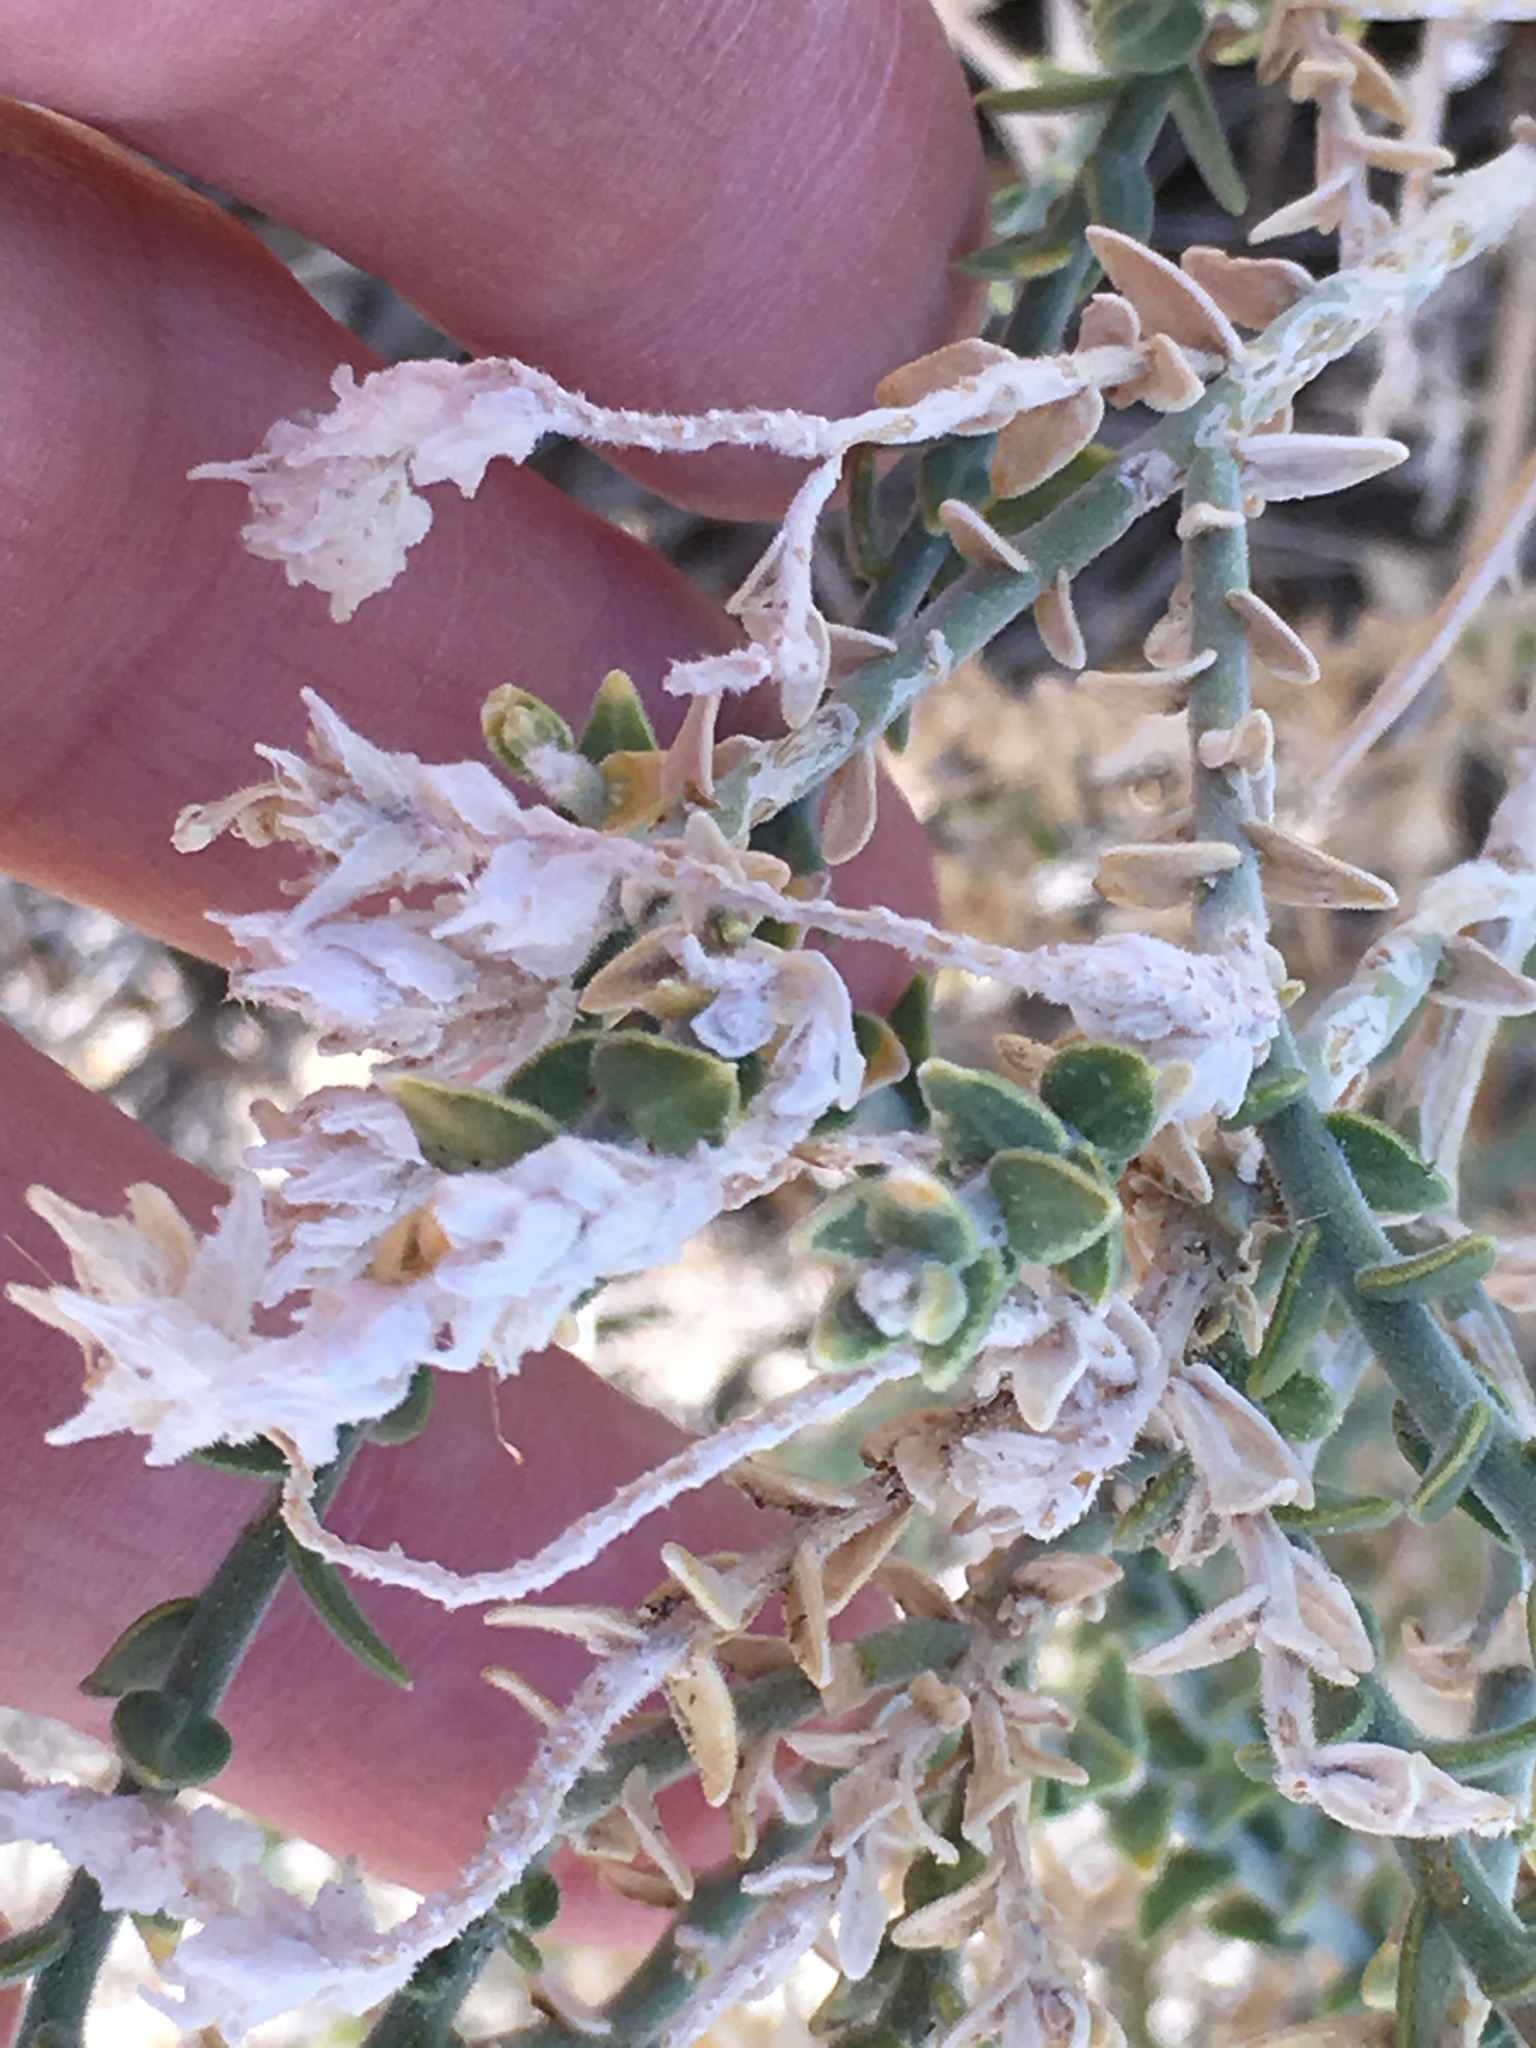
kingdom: Plantae
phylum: Tracheophyta
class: Magnoliopsida
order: Cornales
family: Loasaceae
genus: Petalonyx
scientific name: Petalonyx thurberi
